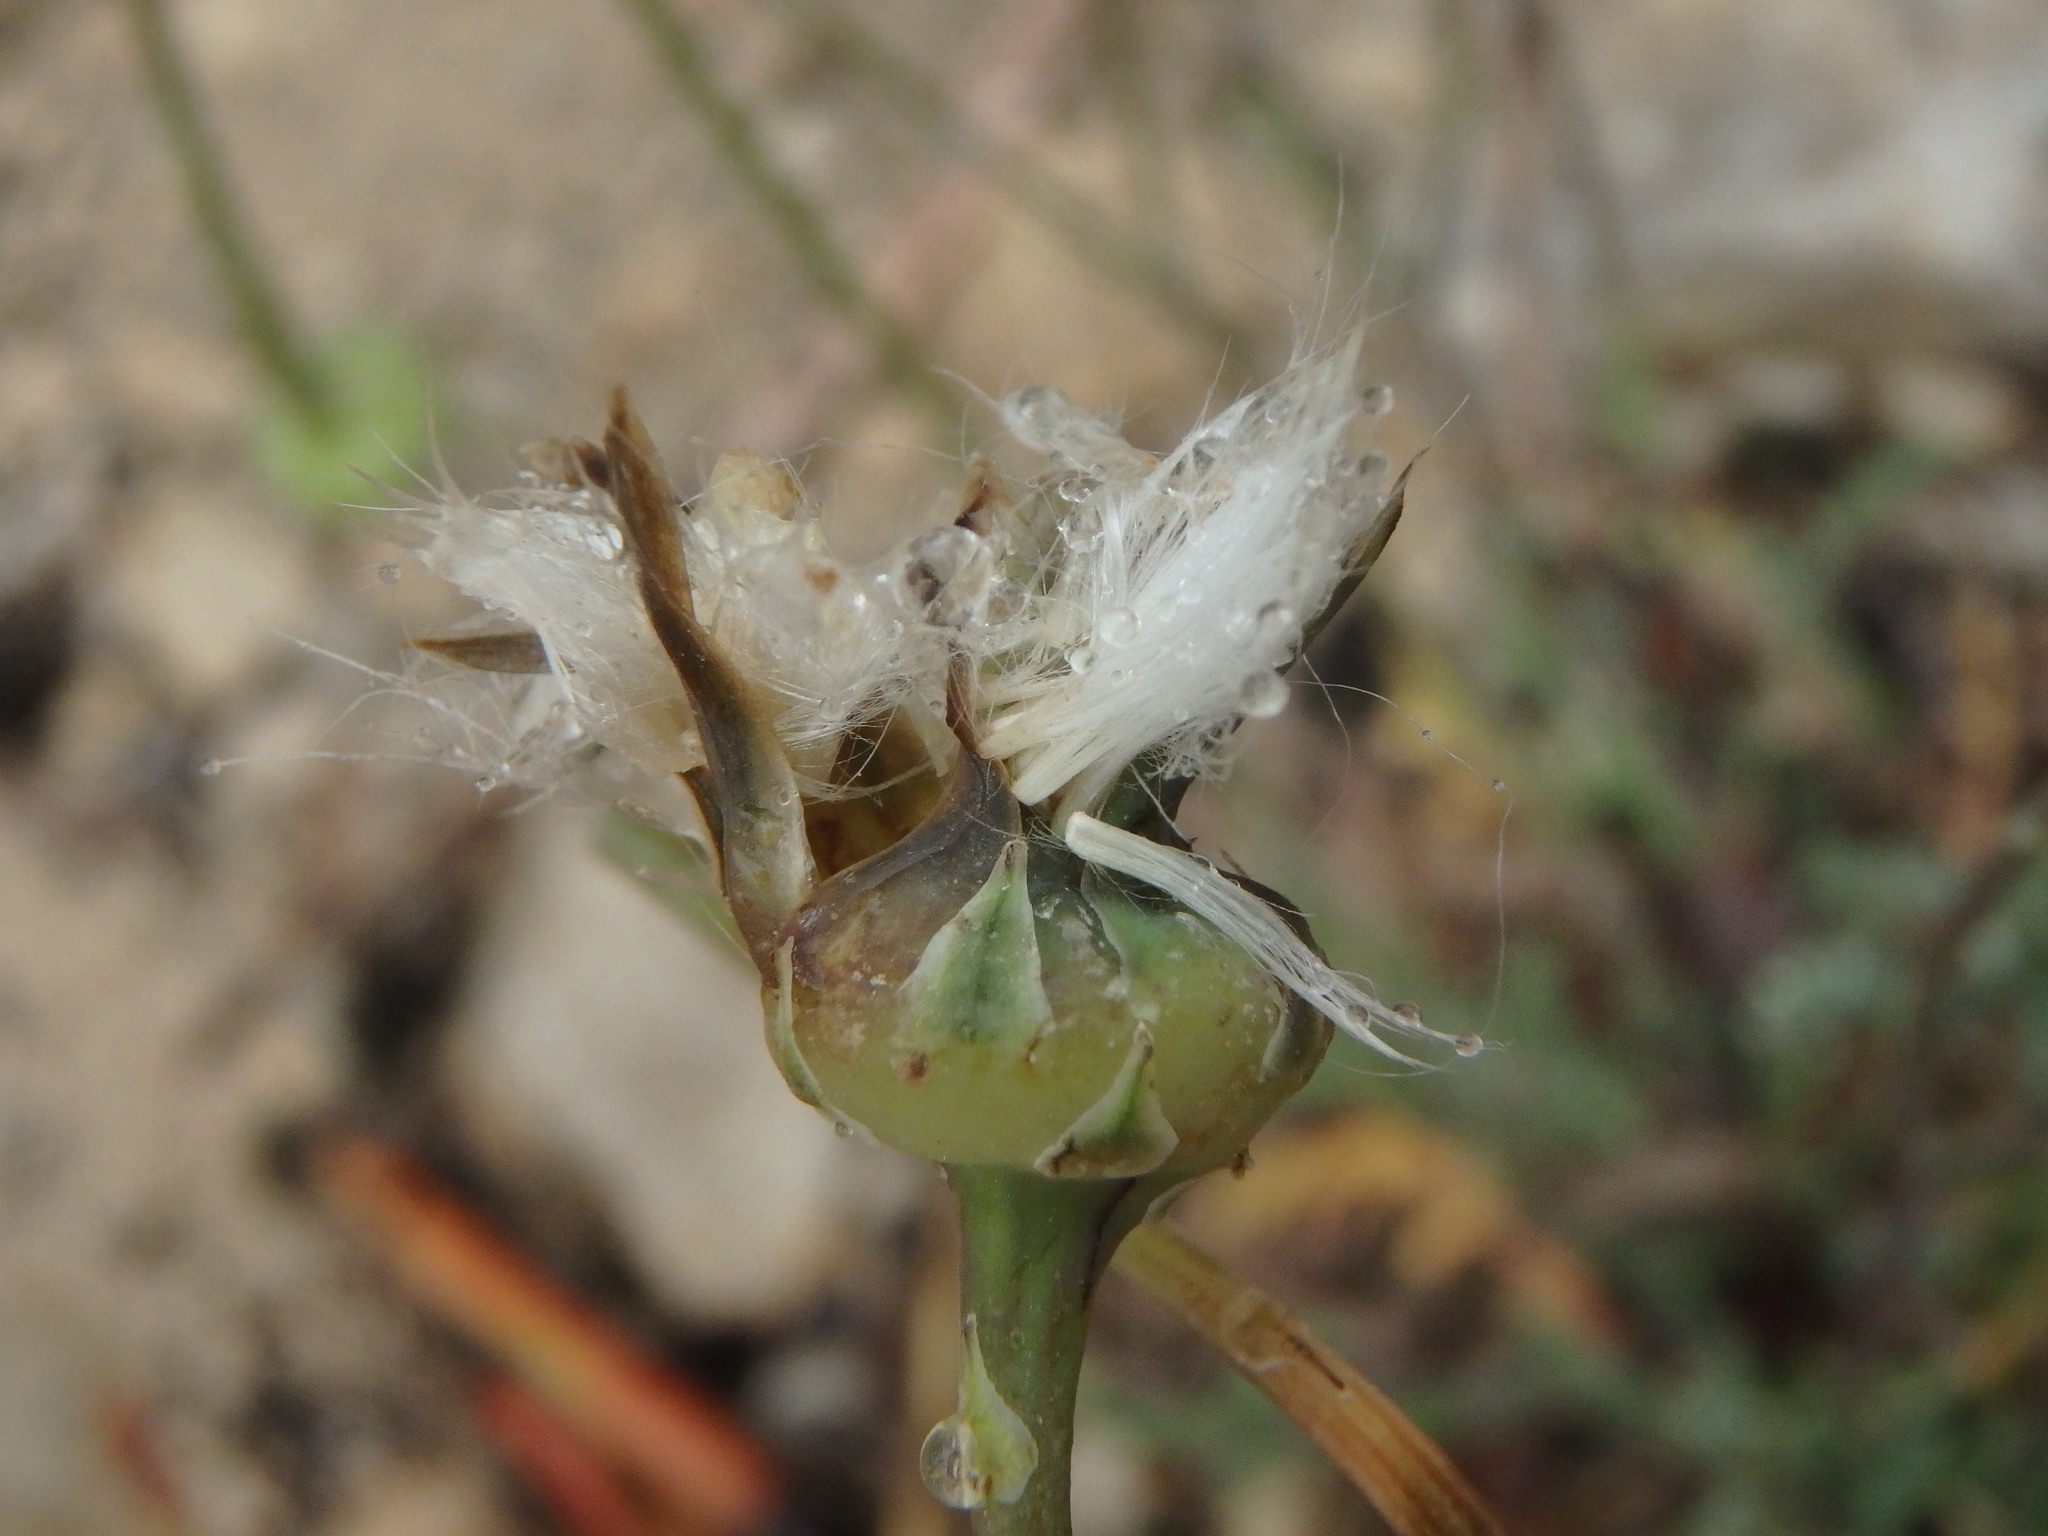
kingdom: Plantae
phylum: Tracheophyta
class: Magnoliopsida
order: Asterales
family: Asteraceae
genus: Reichardia
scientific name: Reichardia picroides
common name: Common brighteyes
